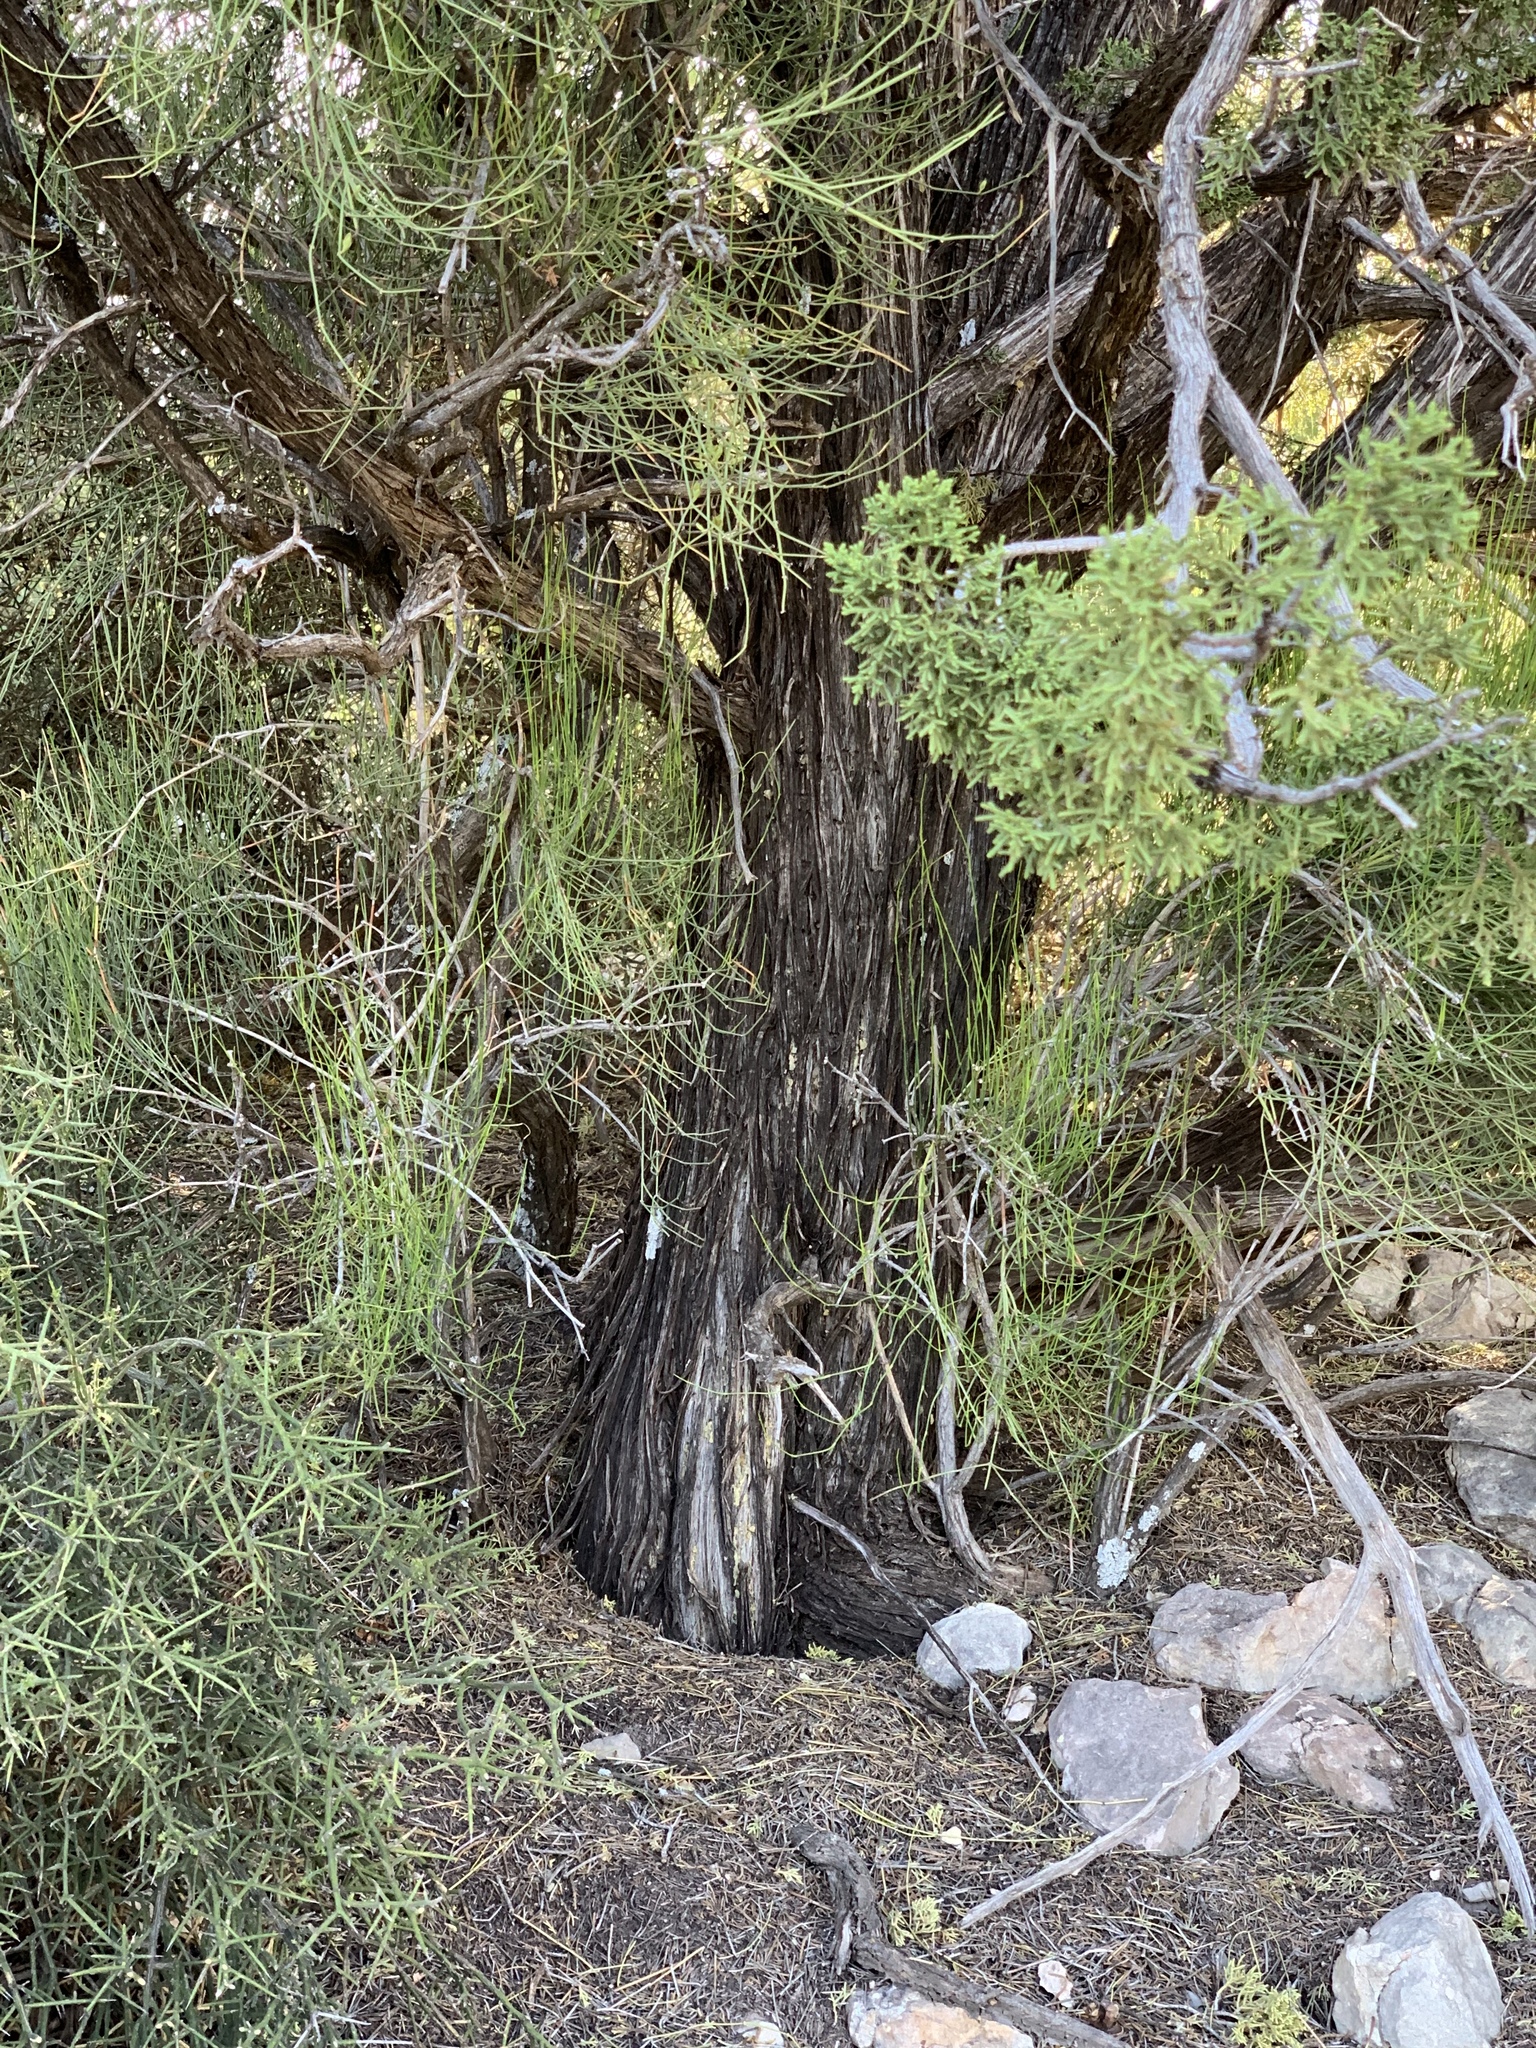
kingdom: Plantae
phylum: Tracheophyta
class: Pinopsida
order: Pinales
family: Cupressaceae
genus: Juniperus
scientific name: Juniperus monosperma
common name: One-seed juniper
